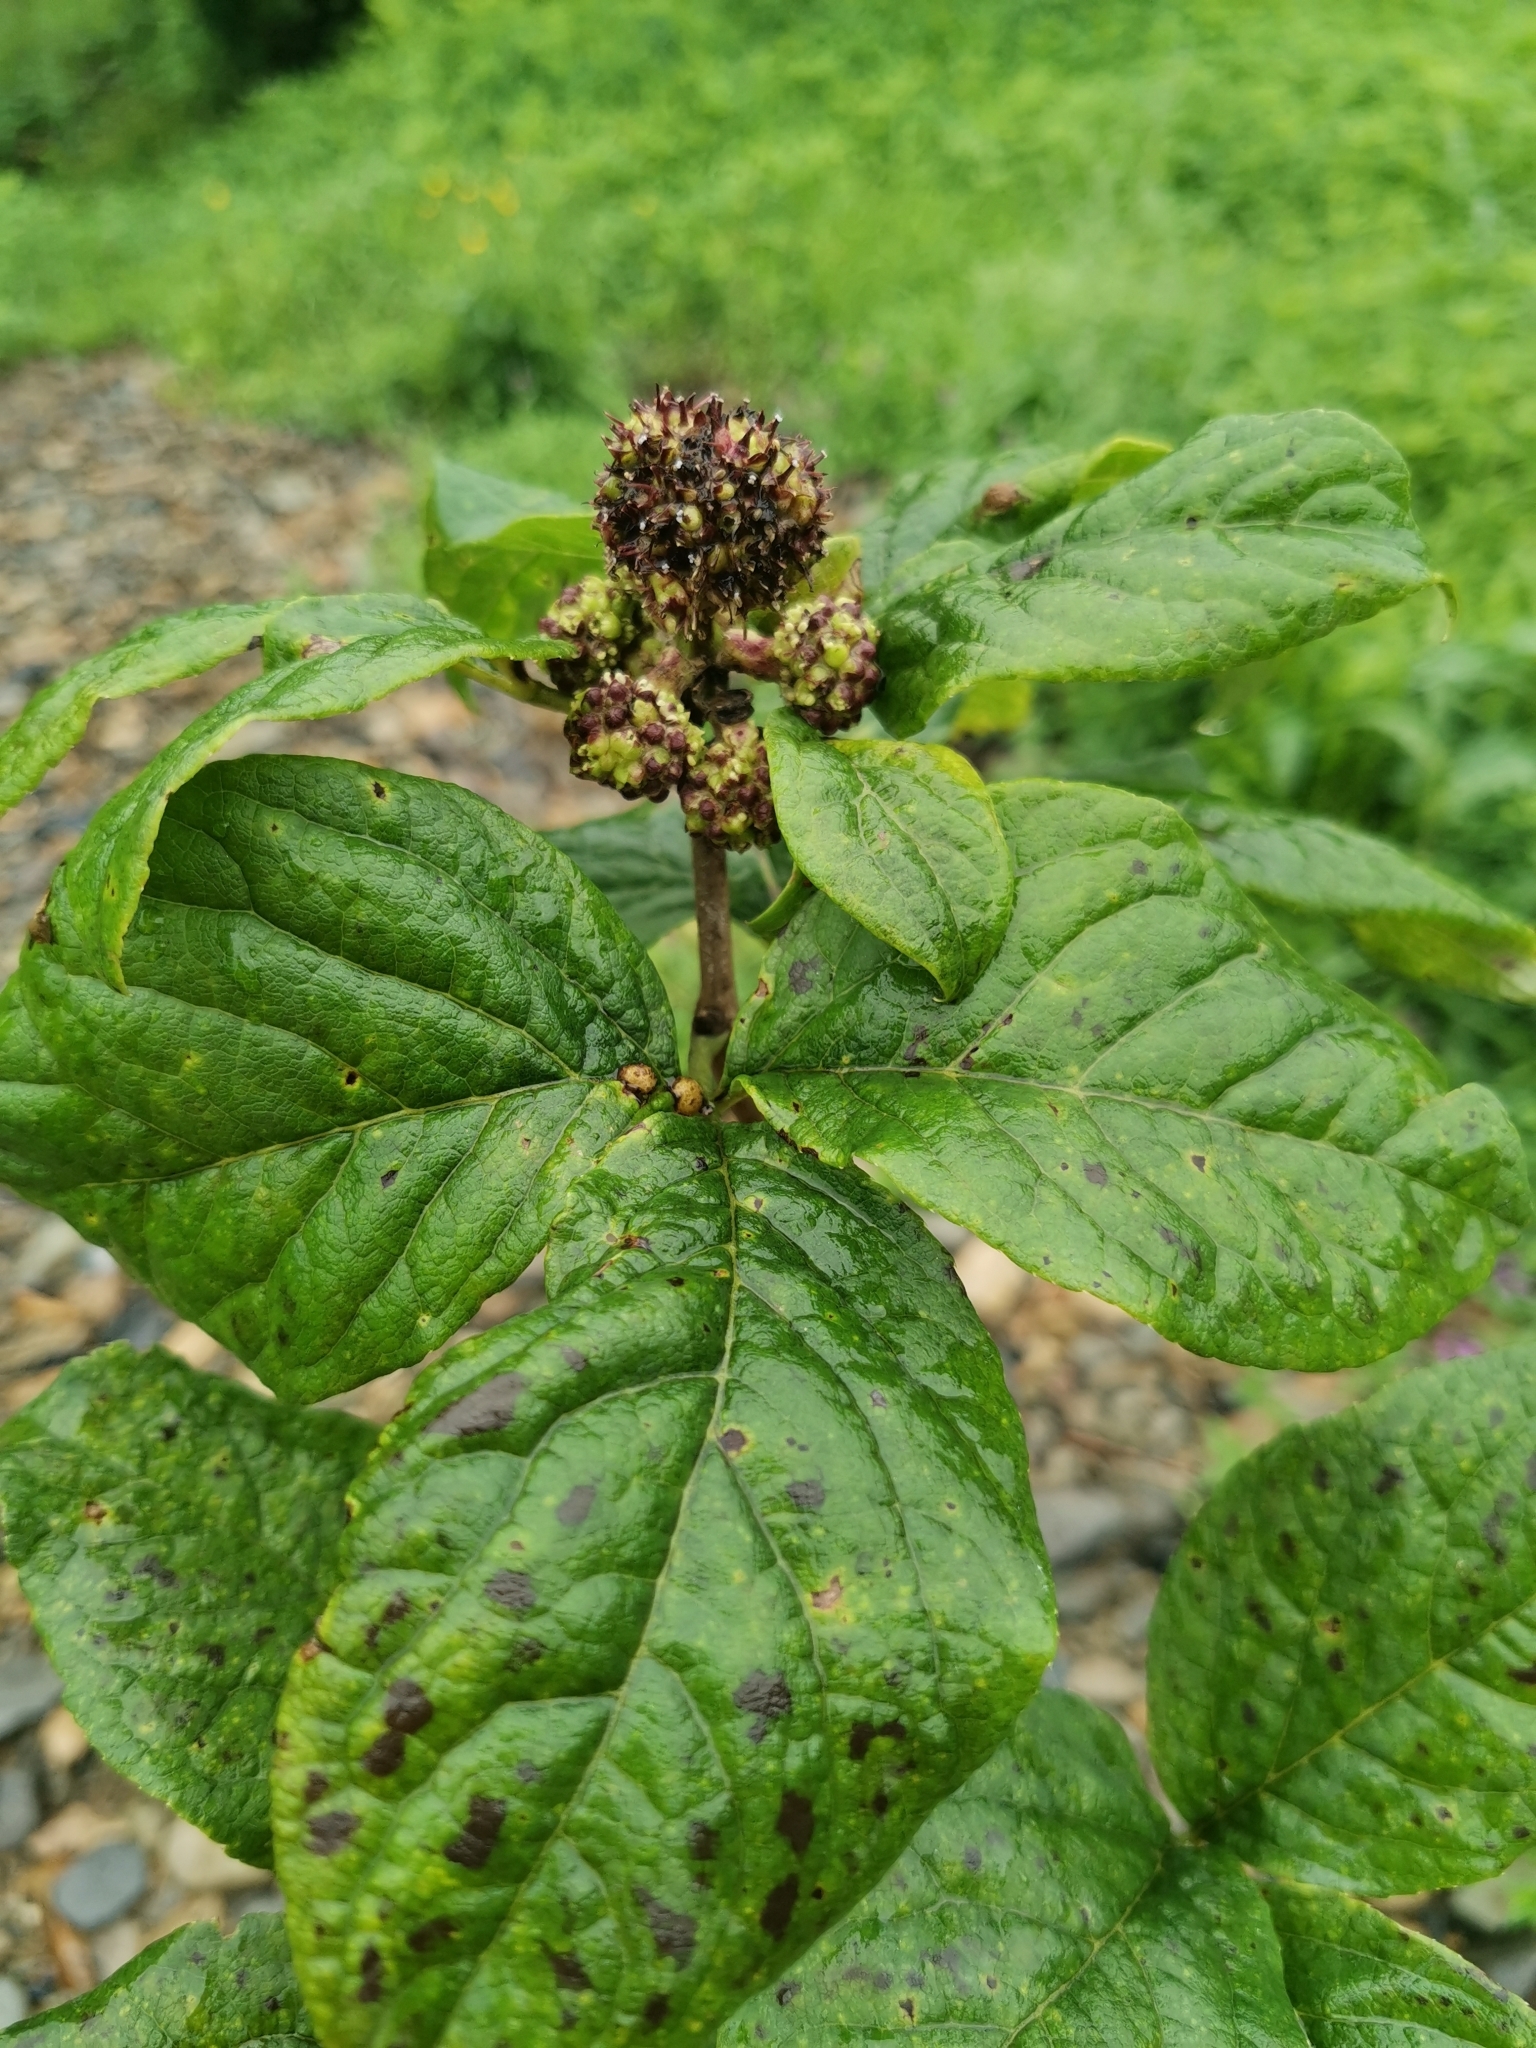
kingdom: Plantae
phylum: Tracheophyta
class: Magnoliopsida
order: Apiales
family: Araliaceae
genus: Eleutherococcus
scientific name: Eleutherococcus sessiliflorus
